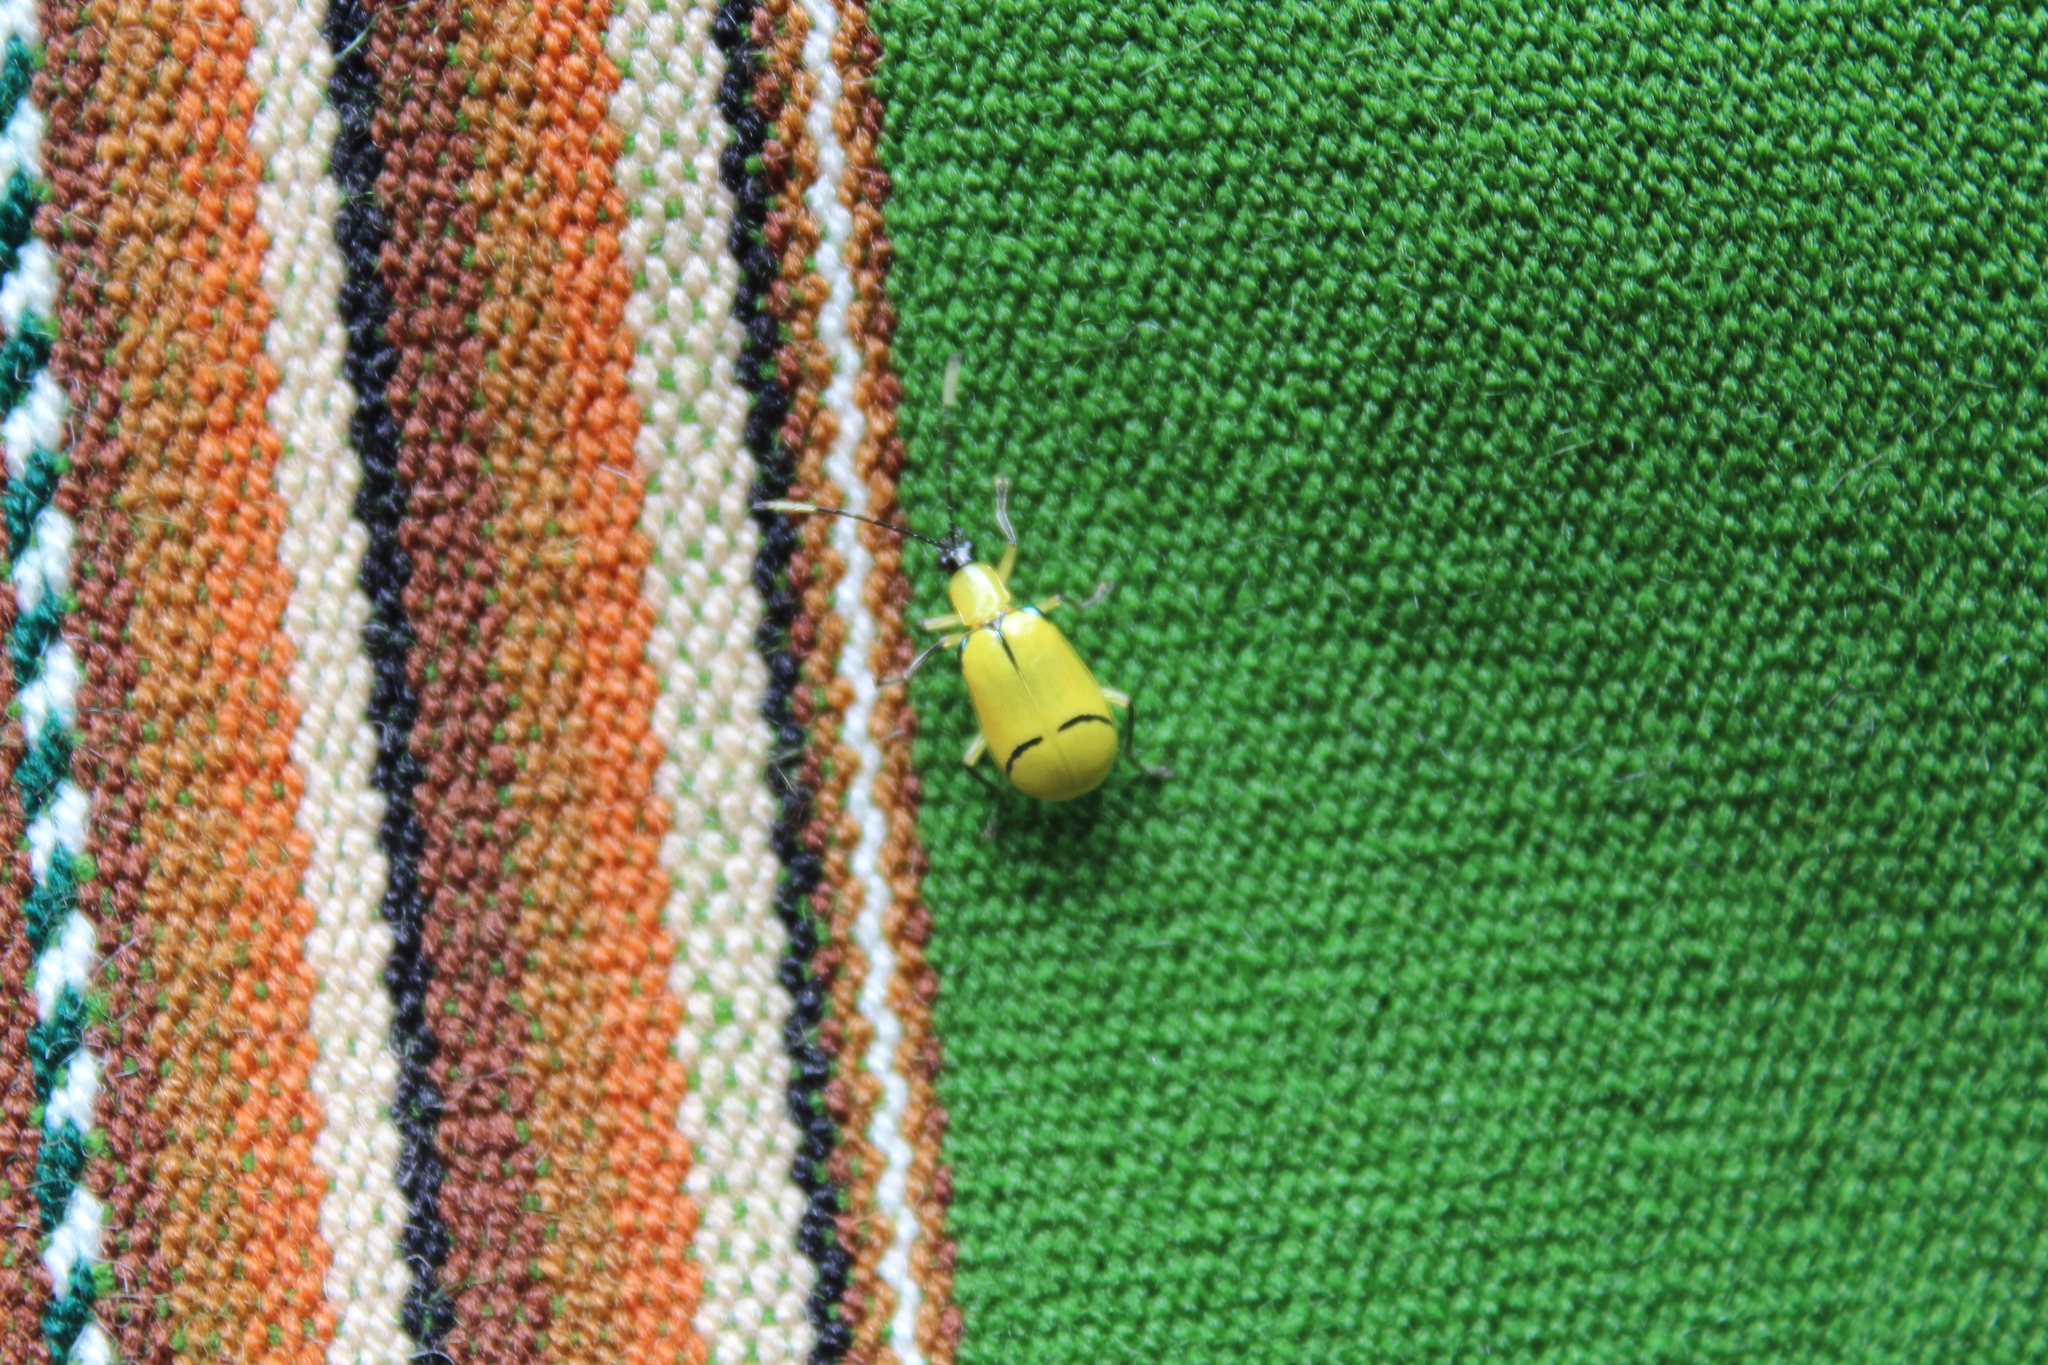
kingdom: Animalia
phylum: Arthropoda
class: Insecta
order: Coleoptera
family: Chrysomelidae
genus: Diabrotica
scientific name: Diabrotica
